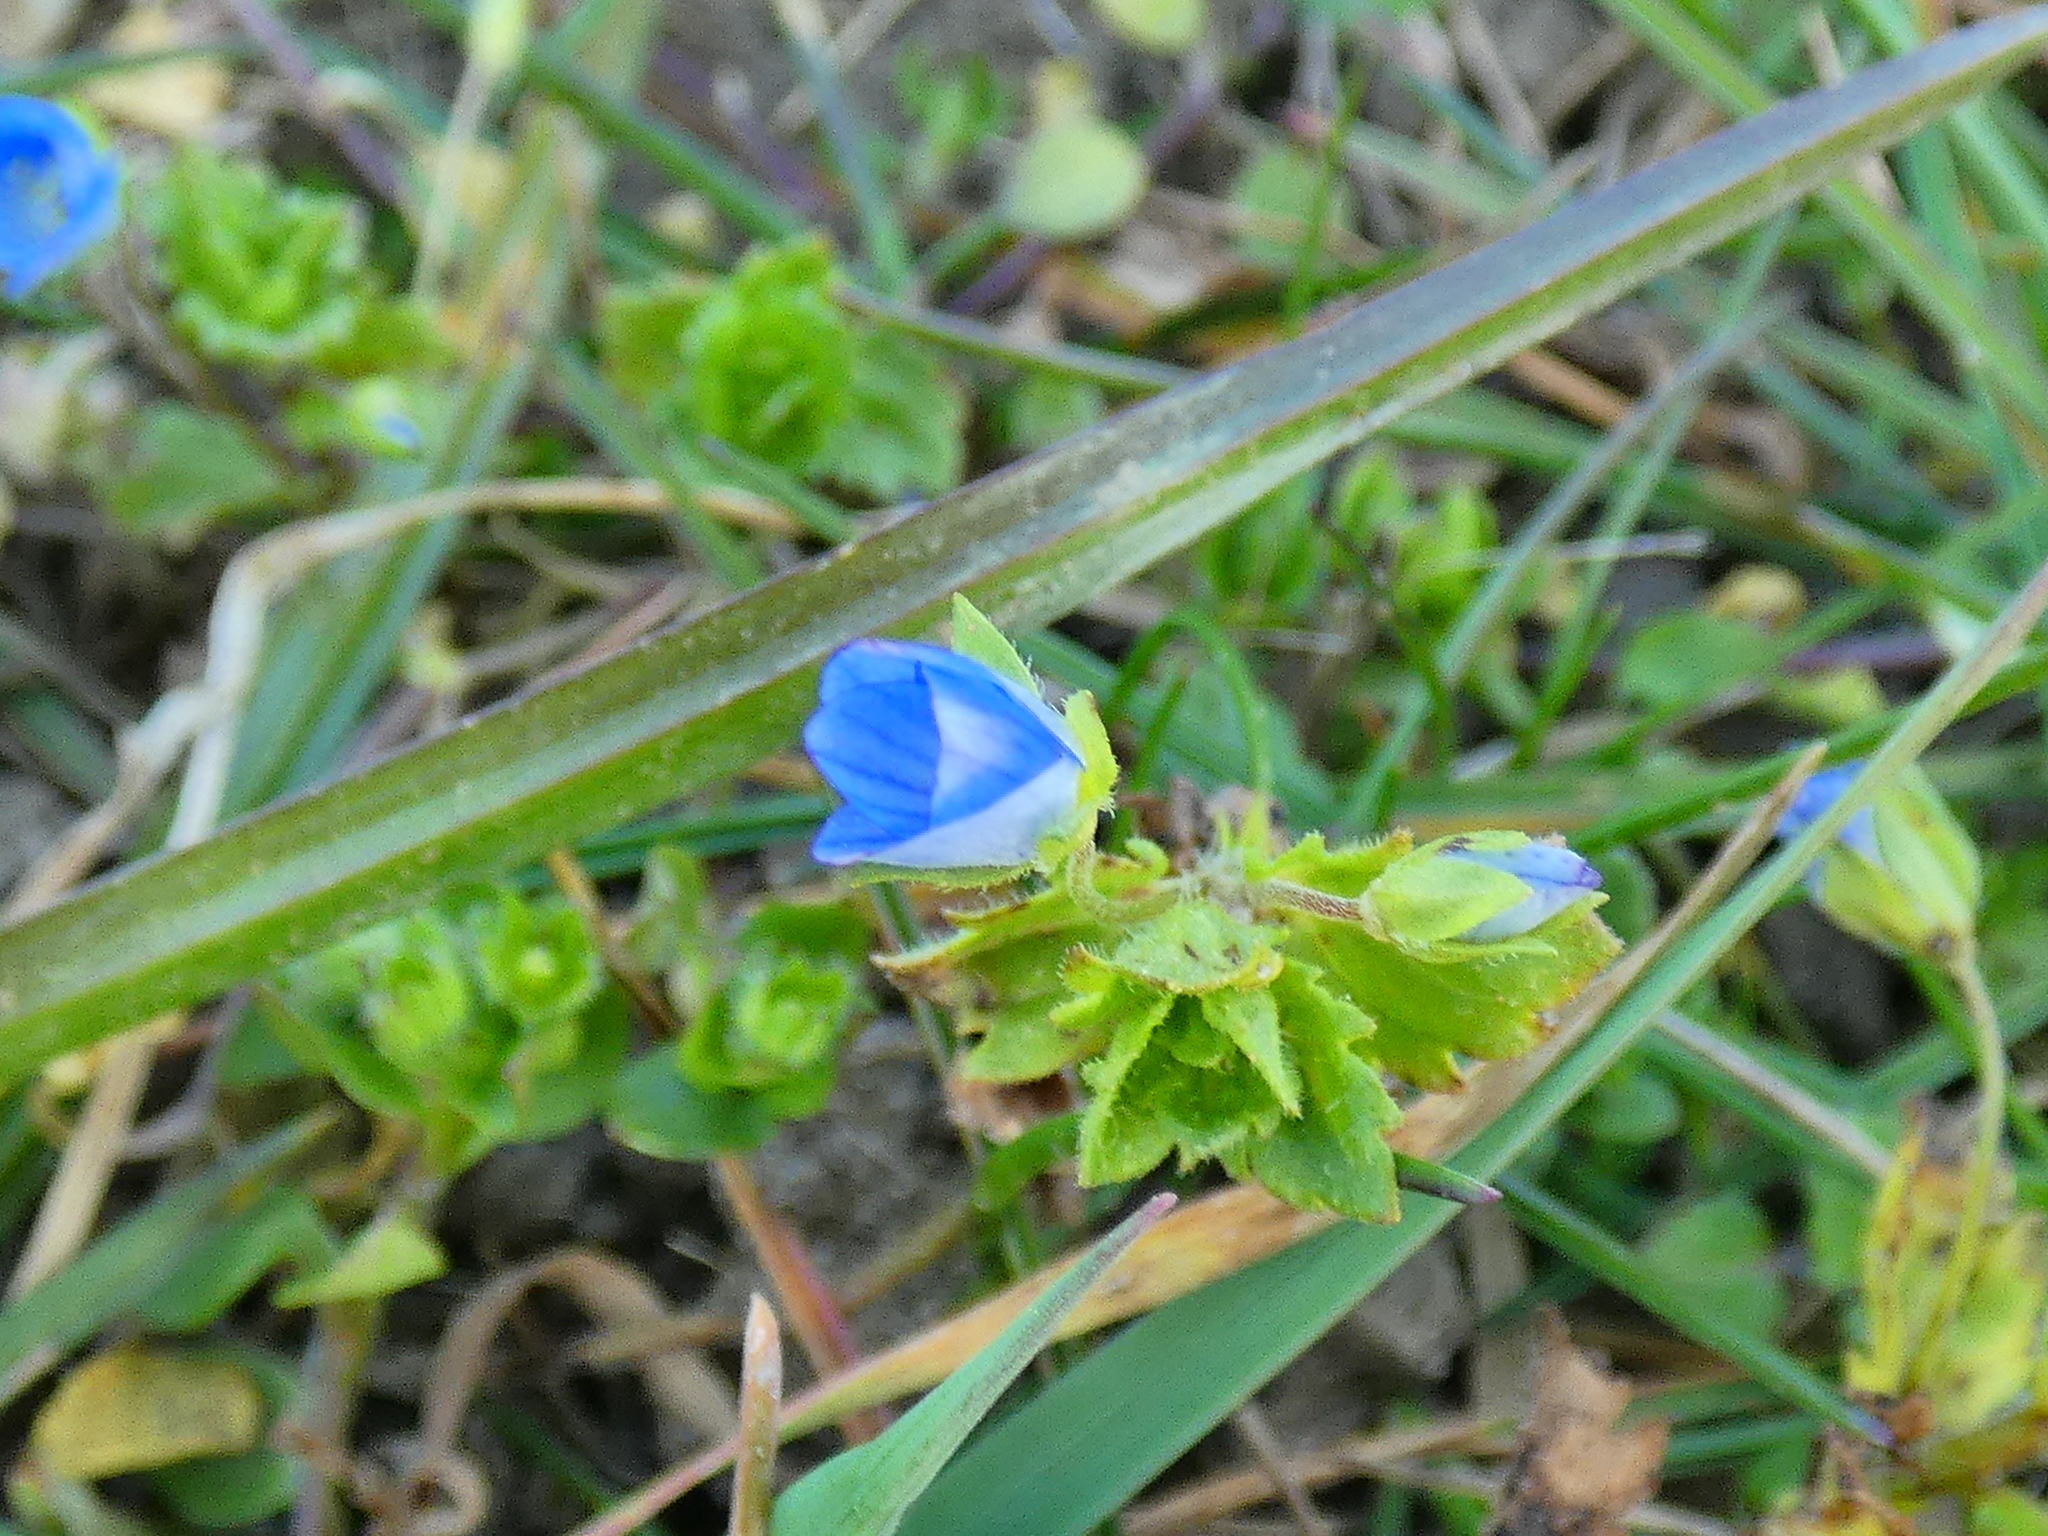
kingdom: Plantae
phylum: Tracheophyta
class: Magnoliopsida
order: Lamiales
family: Plantaginaceae
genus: Veronica
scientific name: Veronica persica
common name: Common field-speedwell
